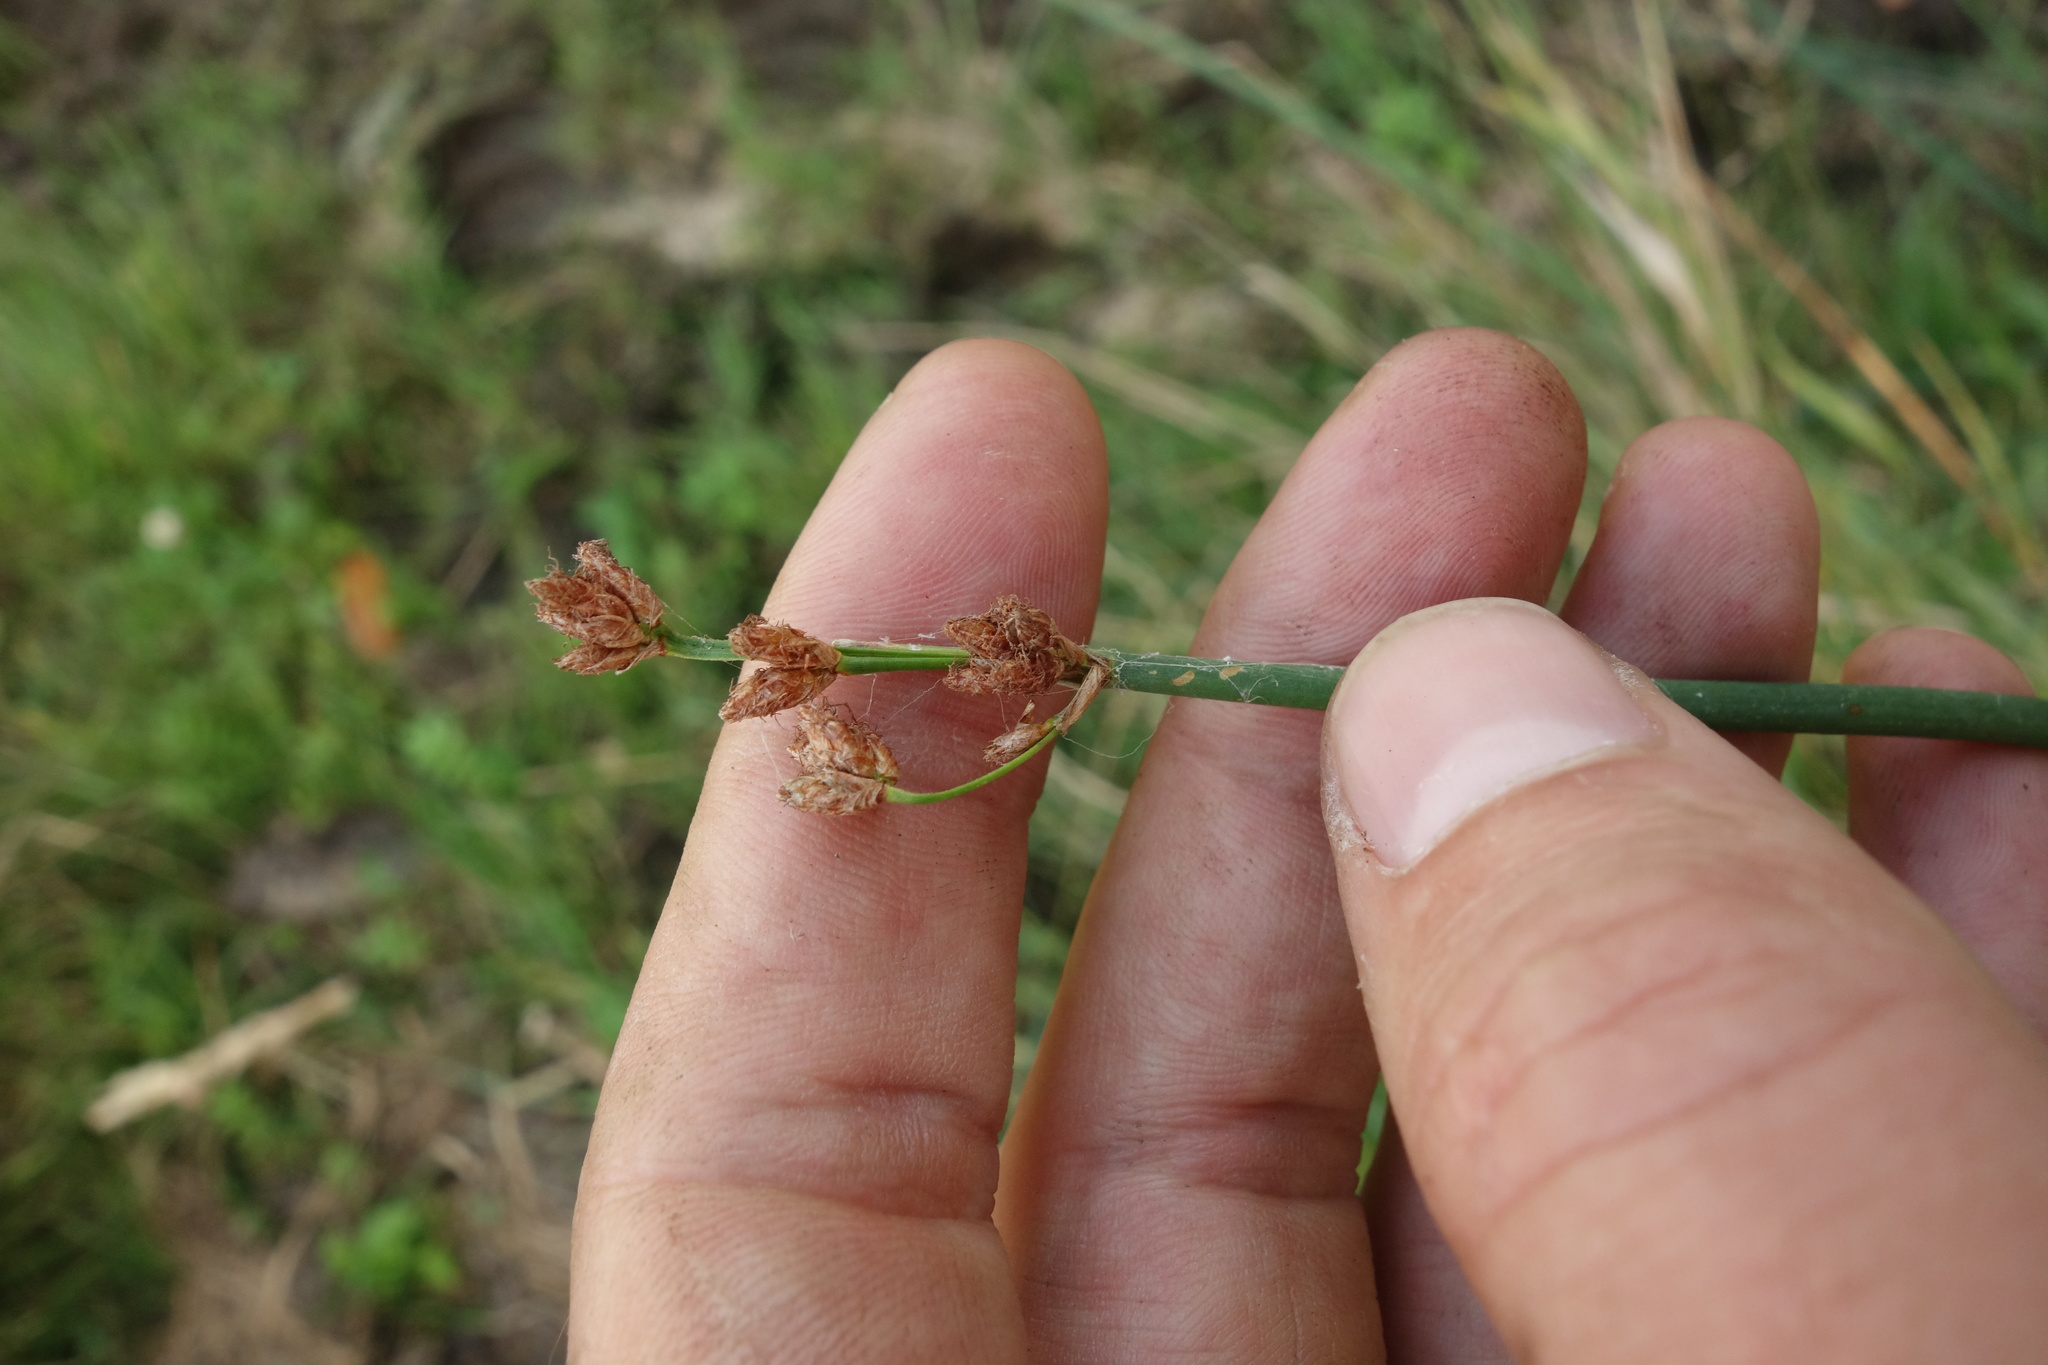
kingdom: Plantae
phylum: Tracheophyta
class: Liliopsida
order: Poales
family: Cyperaceae
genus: Schoenoplectus
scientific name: Schoenoplectus lacustris
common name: Common club-rush
